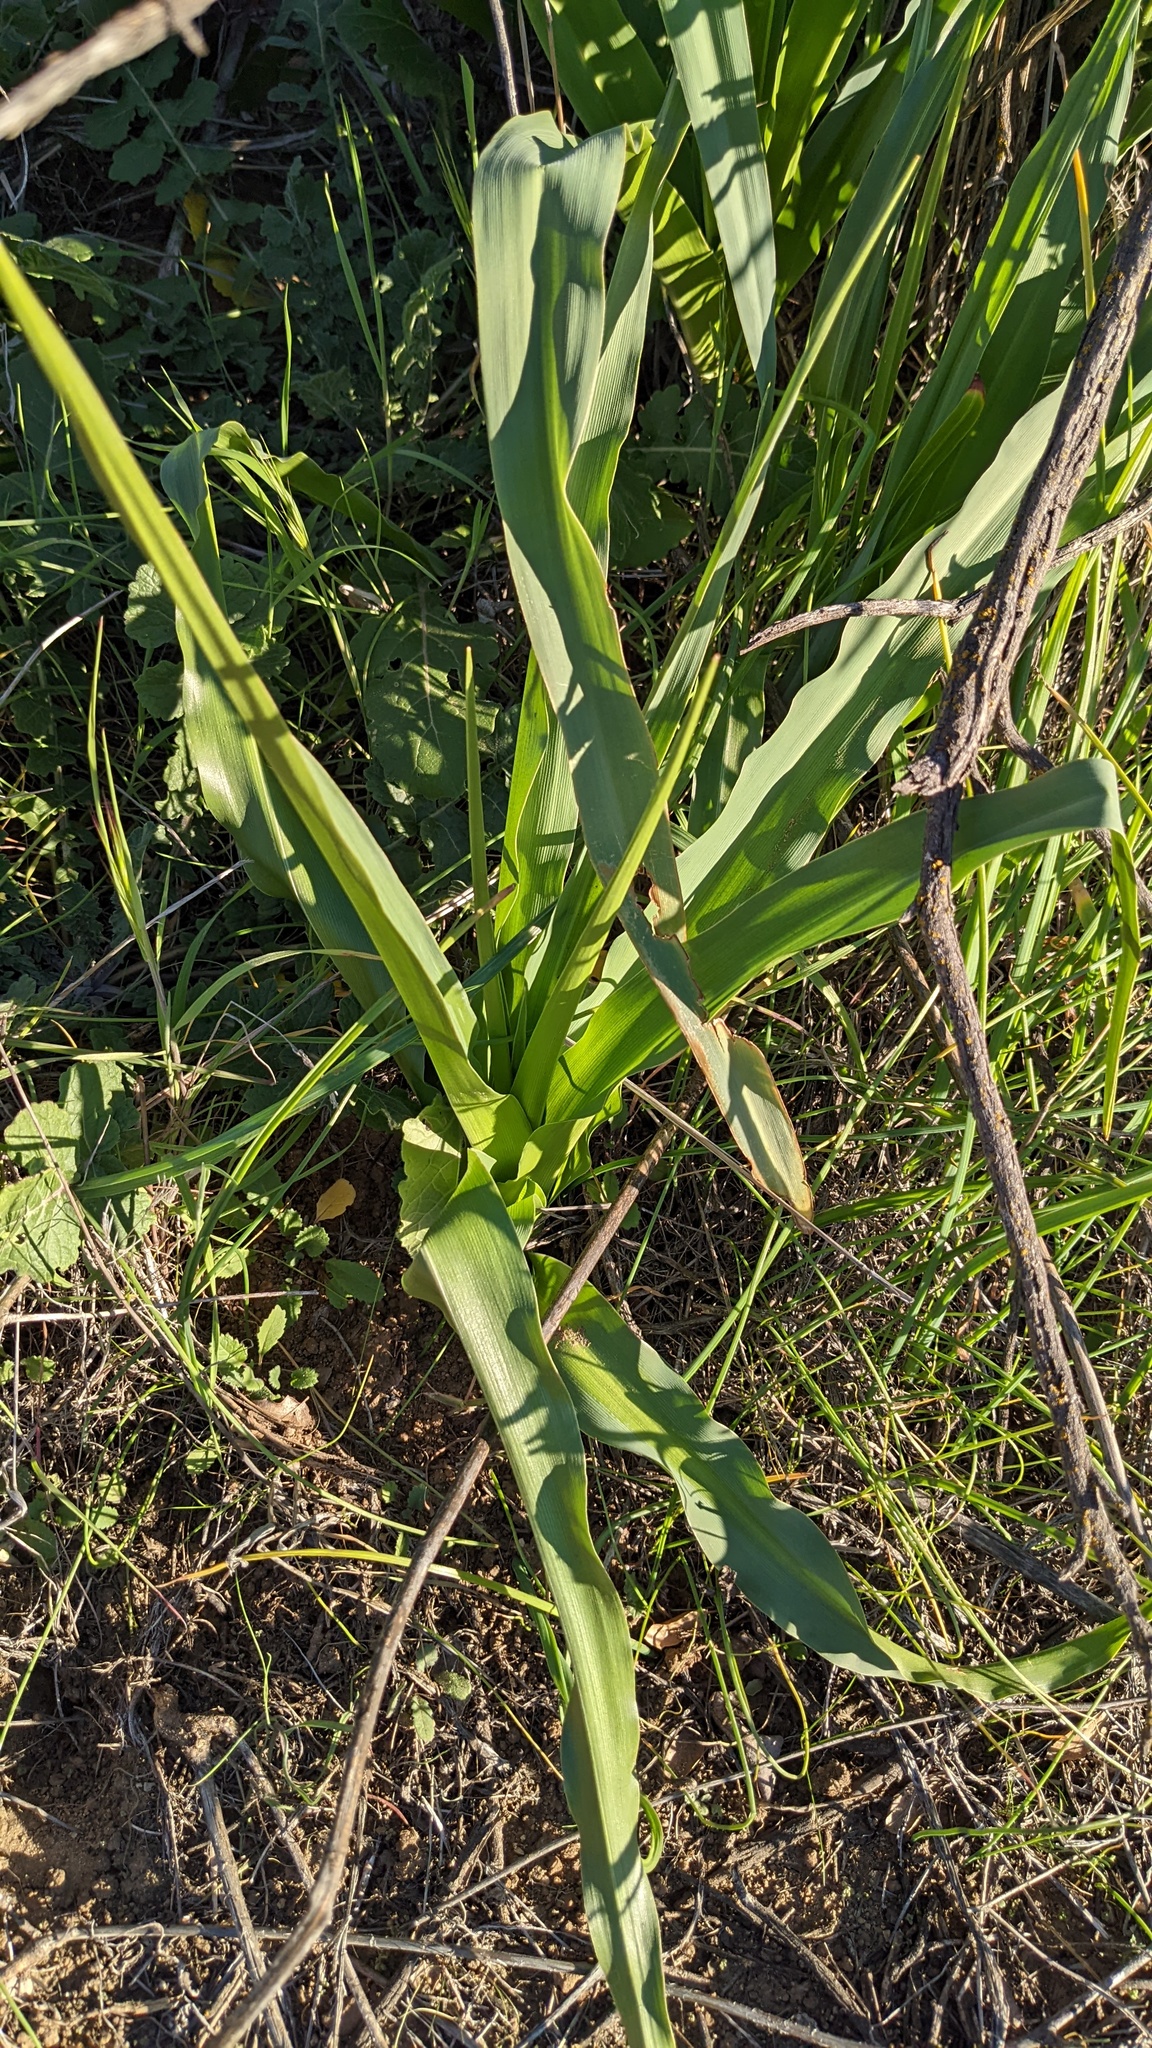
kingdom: Plantae
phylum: Tracheophyta
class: Liliopsida
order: Asparagales
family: Asparagaceae
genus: Chlorogalum
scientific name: Chlorogalum pomeridianum
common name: Amole
